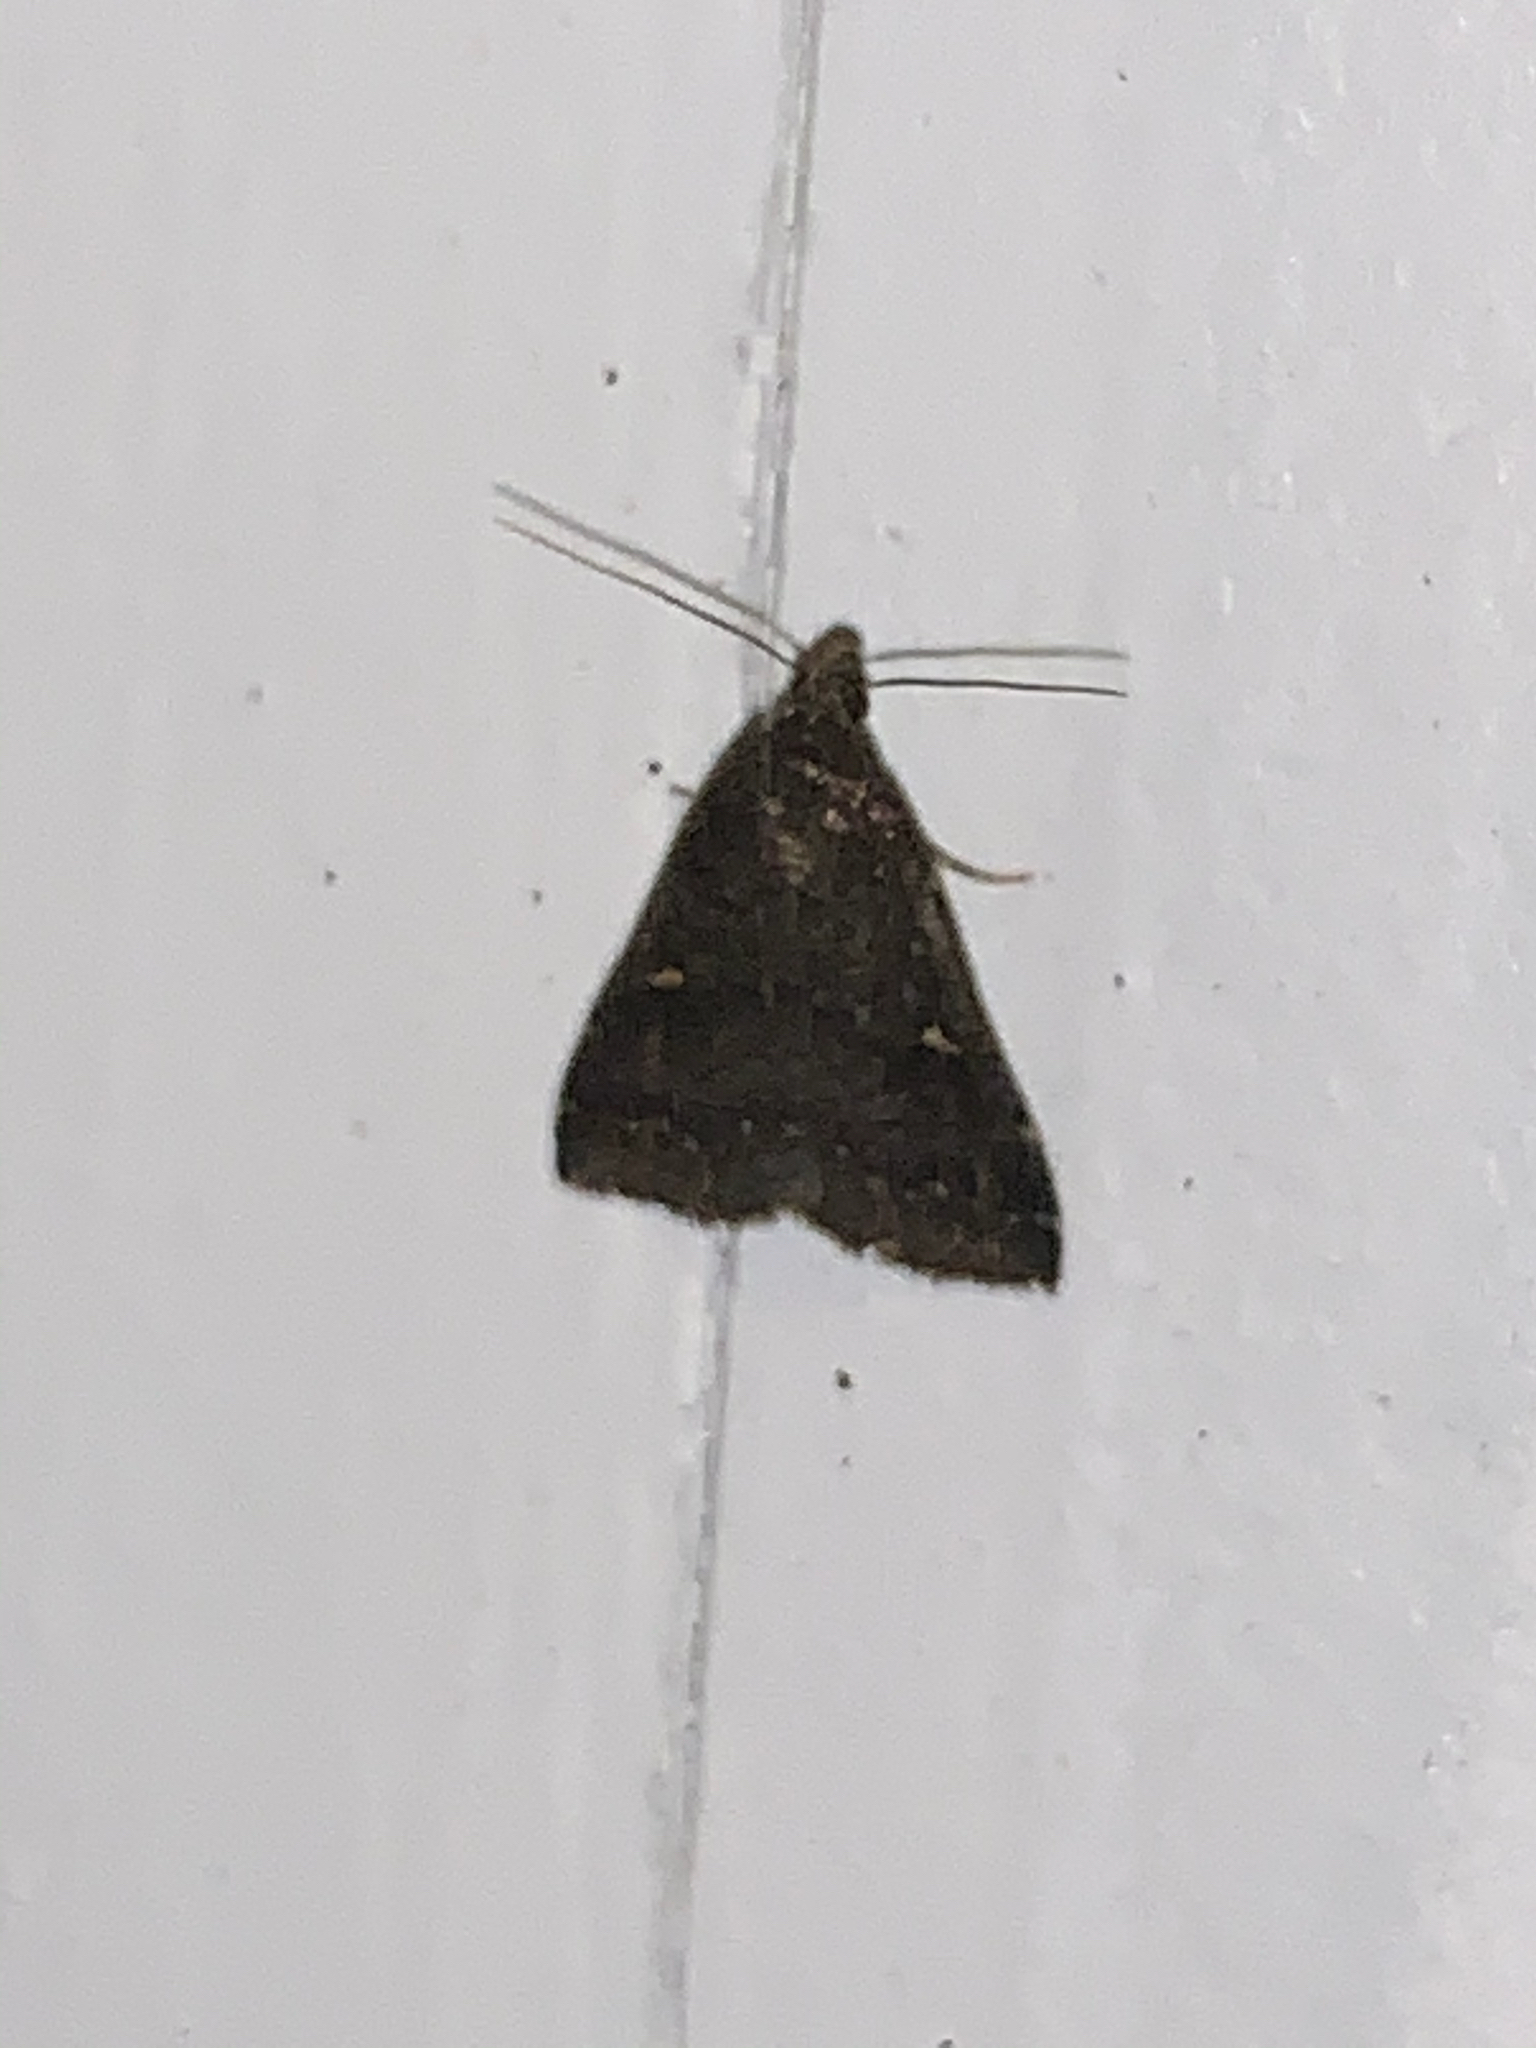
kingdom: Animalia
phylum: Arthropoda
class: Insecta
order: Lepidoptera
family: Erebidae
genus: Tetanolita
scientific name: Tetanolita mynesalis
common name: Smoky tetanolita moth
